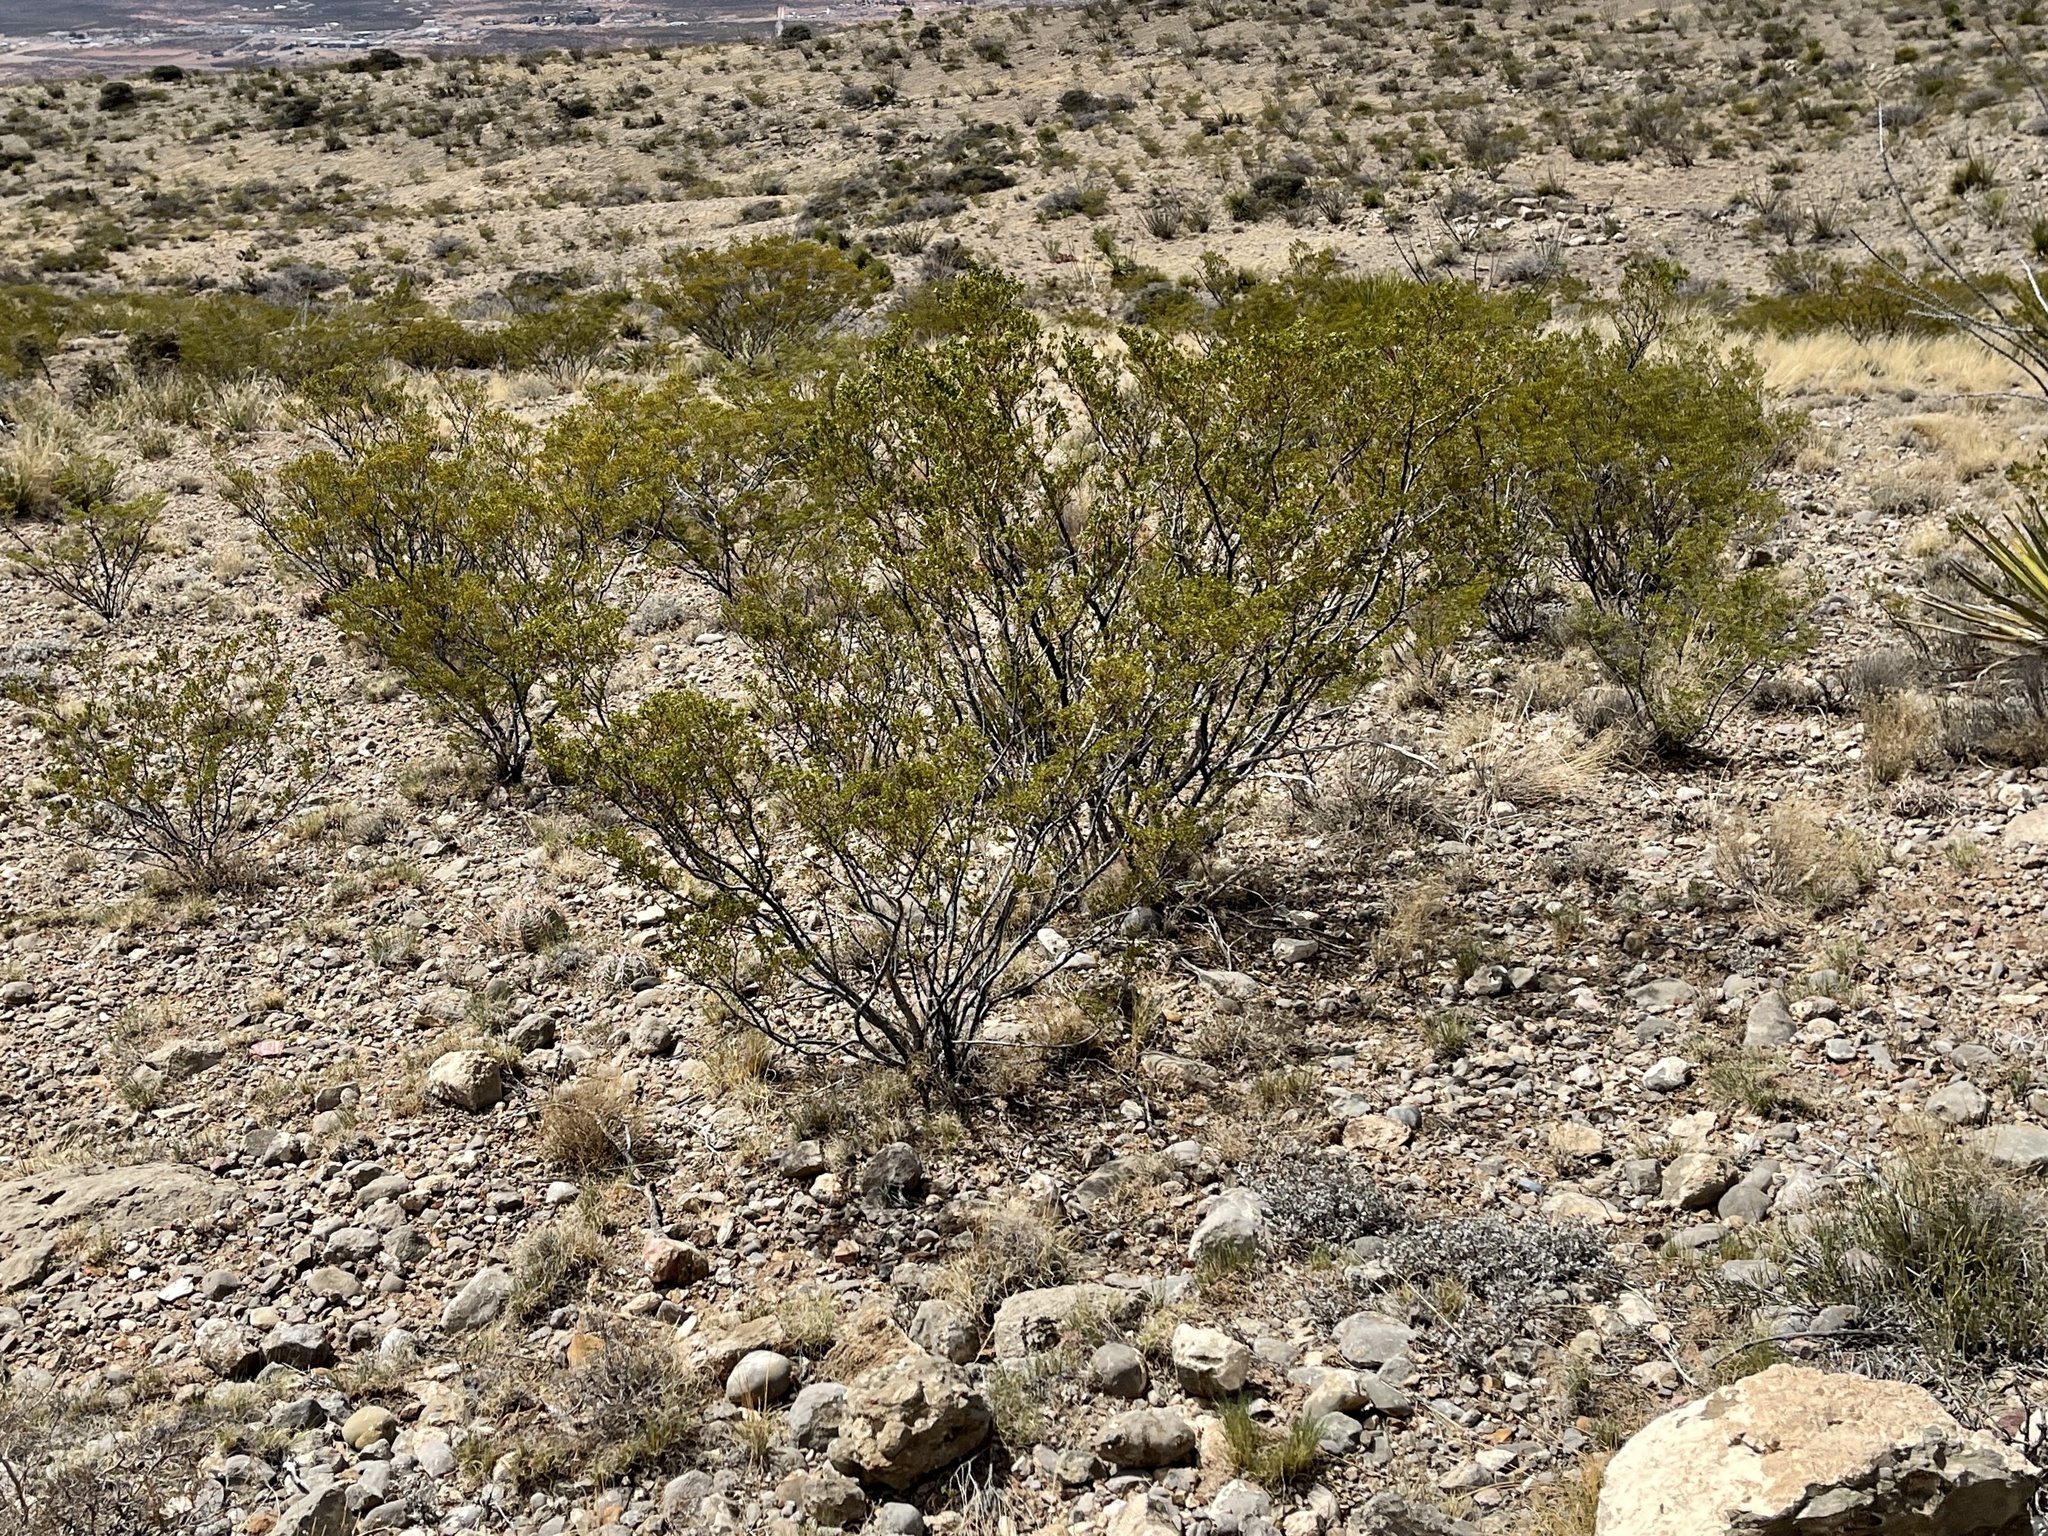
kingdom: Plantae
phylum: Tracheophyta
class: Magnoliopsida
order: Zygophyllales
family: Zygophyllaceae
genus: Larrea
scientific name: Larrea tridentata
